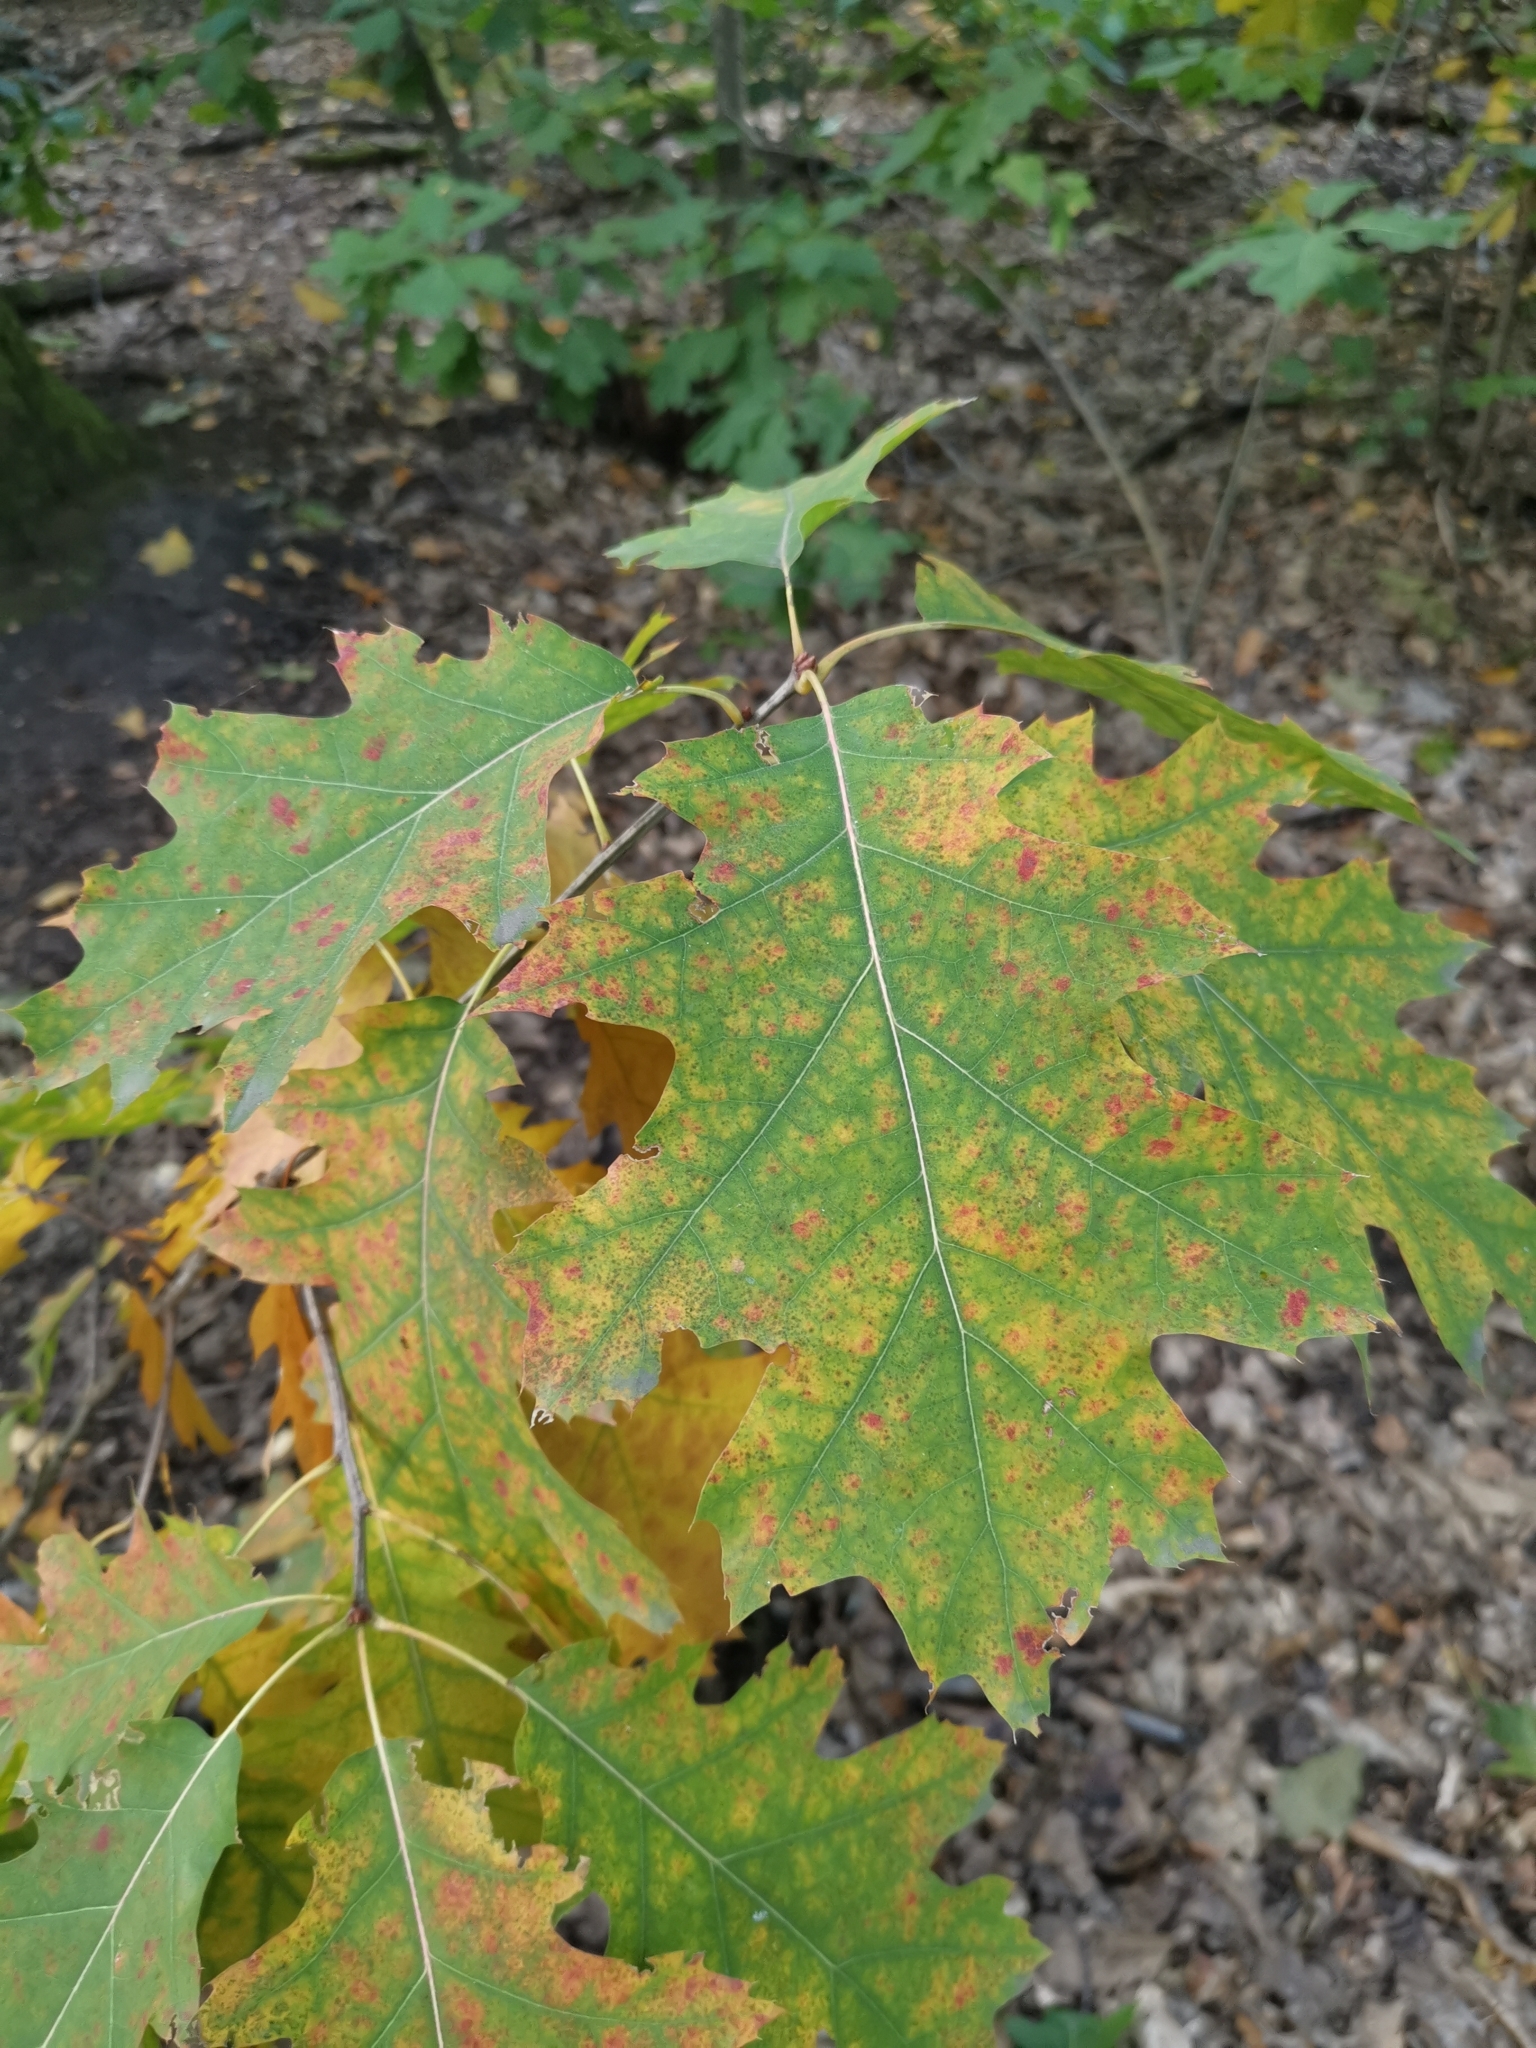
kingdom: Plantae
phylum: Tracheophyta
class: Magnoliopsida
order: Fagales
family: Fagaceae
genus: Quercus
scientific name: Quercus rubra
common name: Red oak
